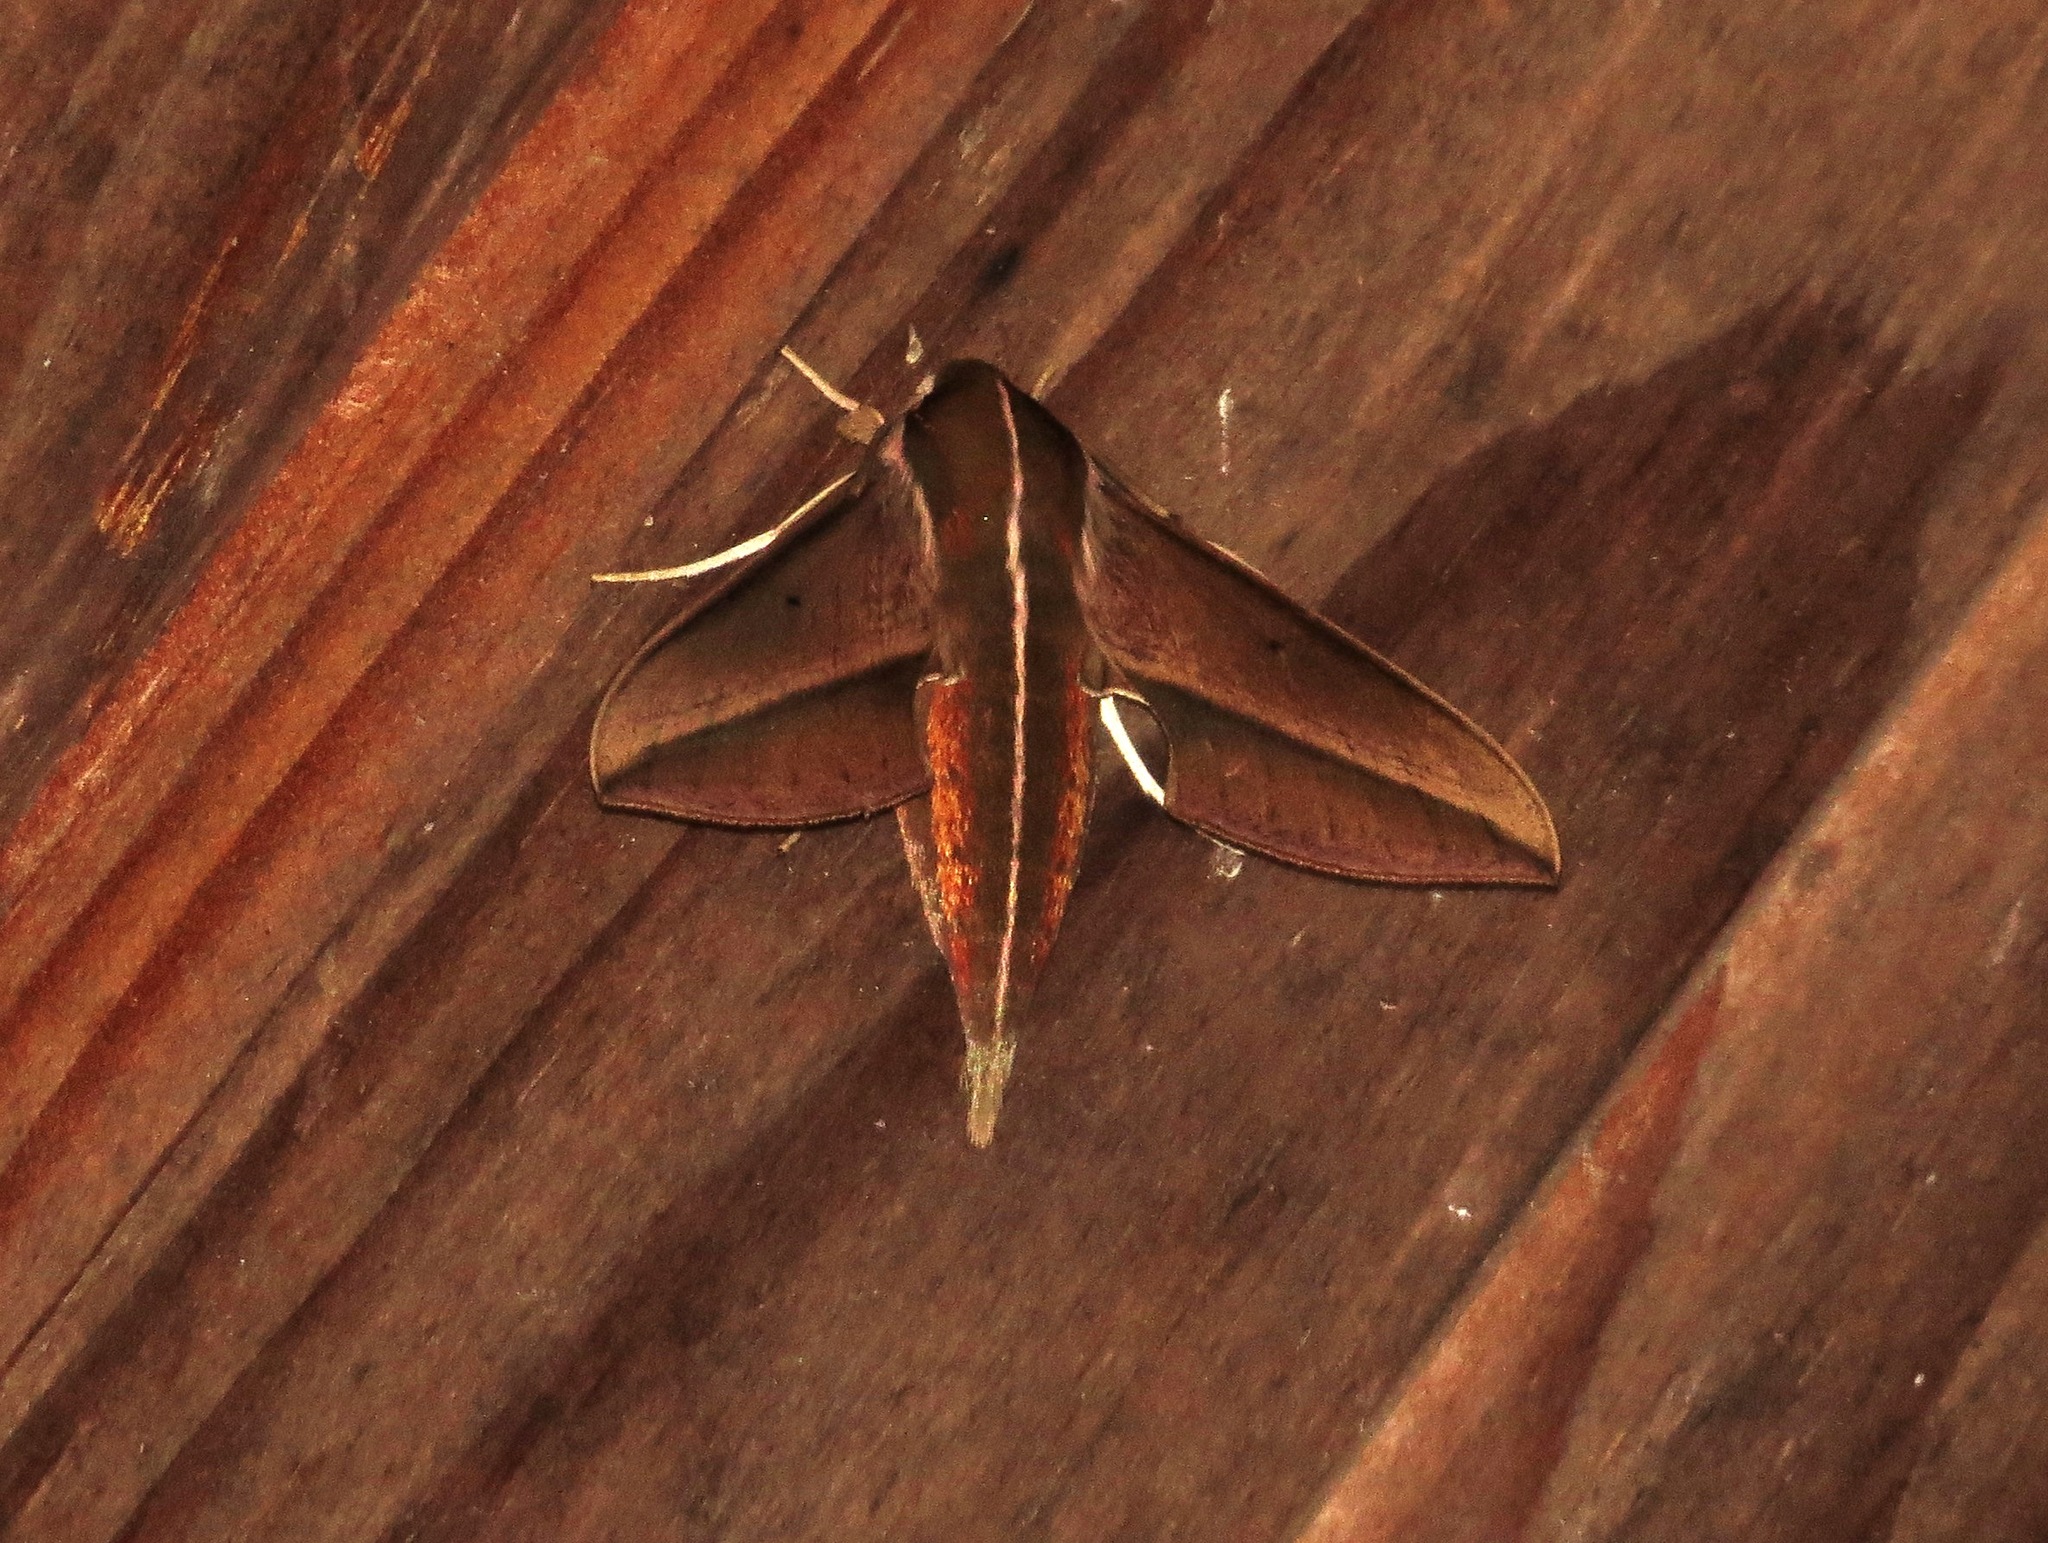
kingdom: Animalia
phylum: Arthropoda
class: Insecta
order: Lepidoptera
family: Sphingidae
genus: Hippotion
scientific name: Hippotion griveaudi
